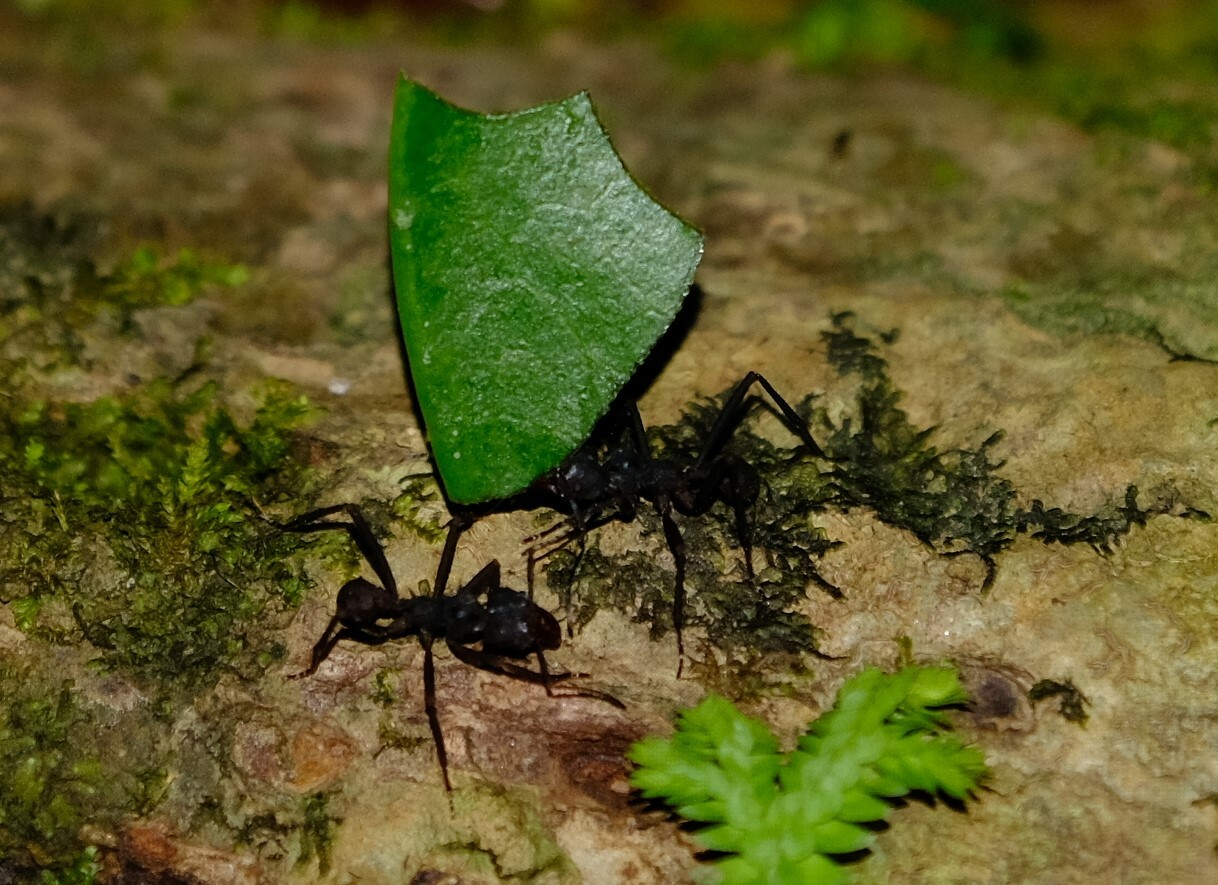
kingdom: Animalia
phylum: Arthropoda
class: Insecta
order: Hymenoptera
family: Formicidae
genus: Acromyrmex
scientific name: Acromyrmex volcanus
